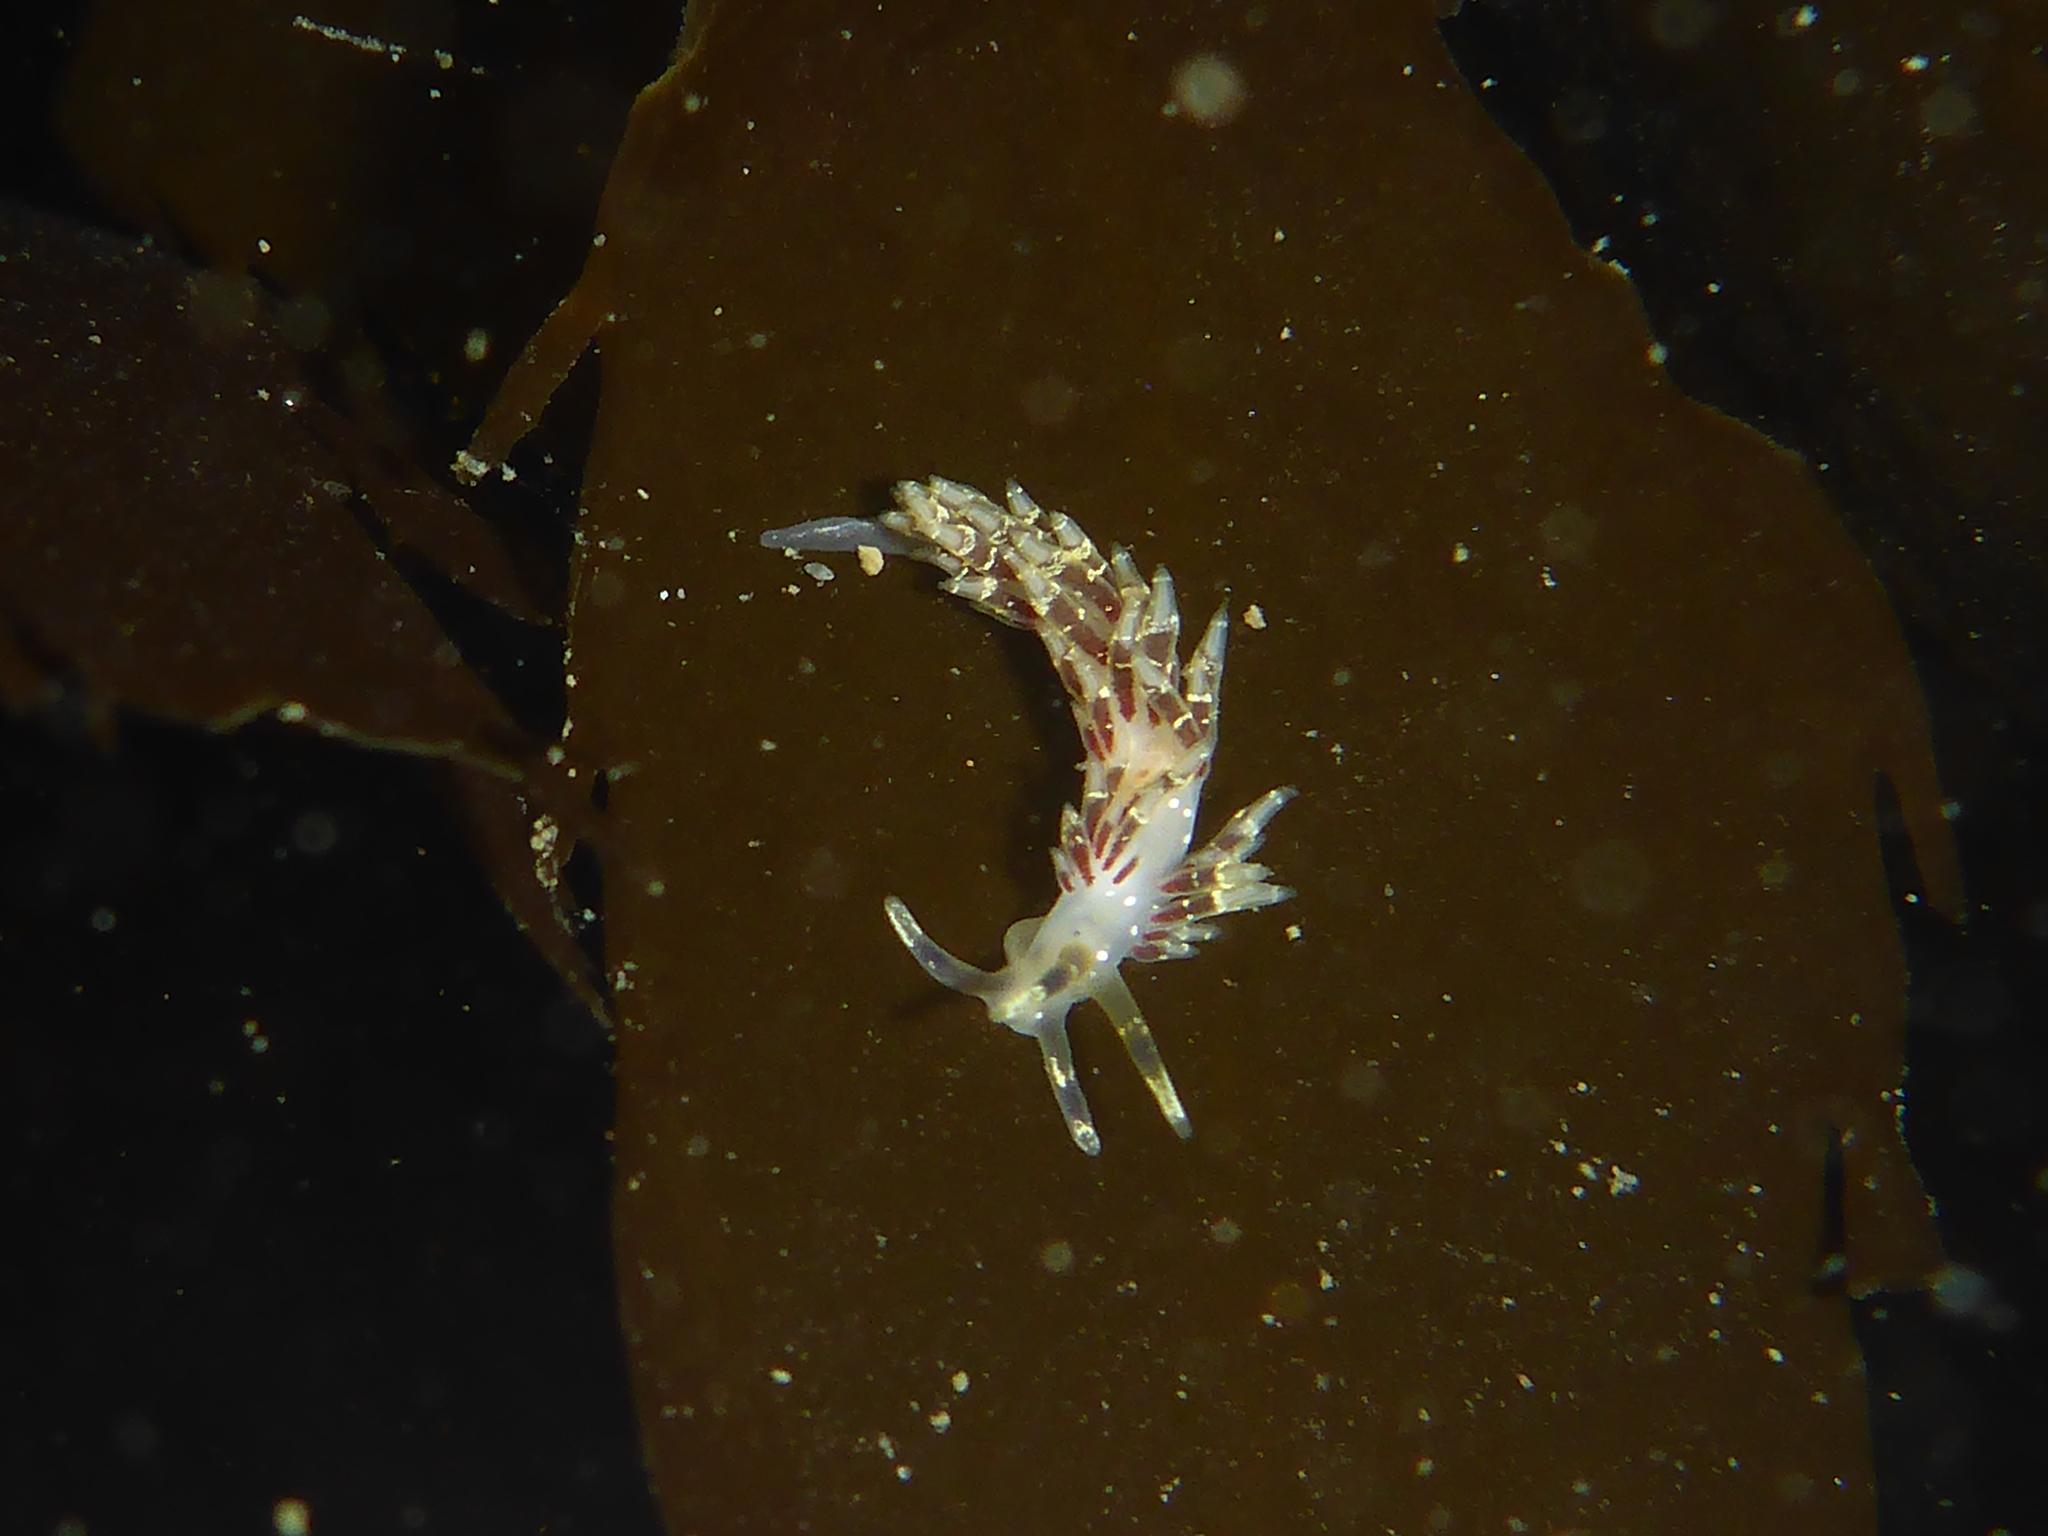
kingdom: Animalia
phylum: Mollusca
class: Gastropoda
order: Nudibranchia
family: Abronicidae
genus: Abronica
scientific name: Abronica abronia
